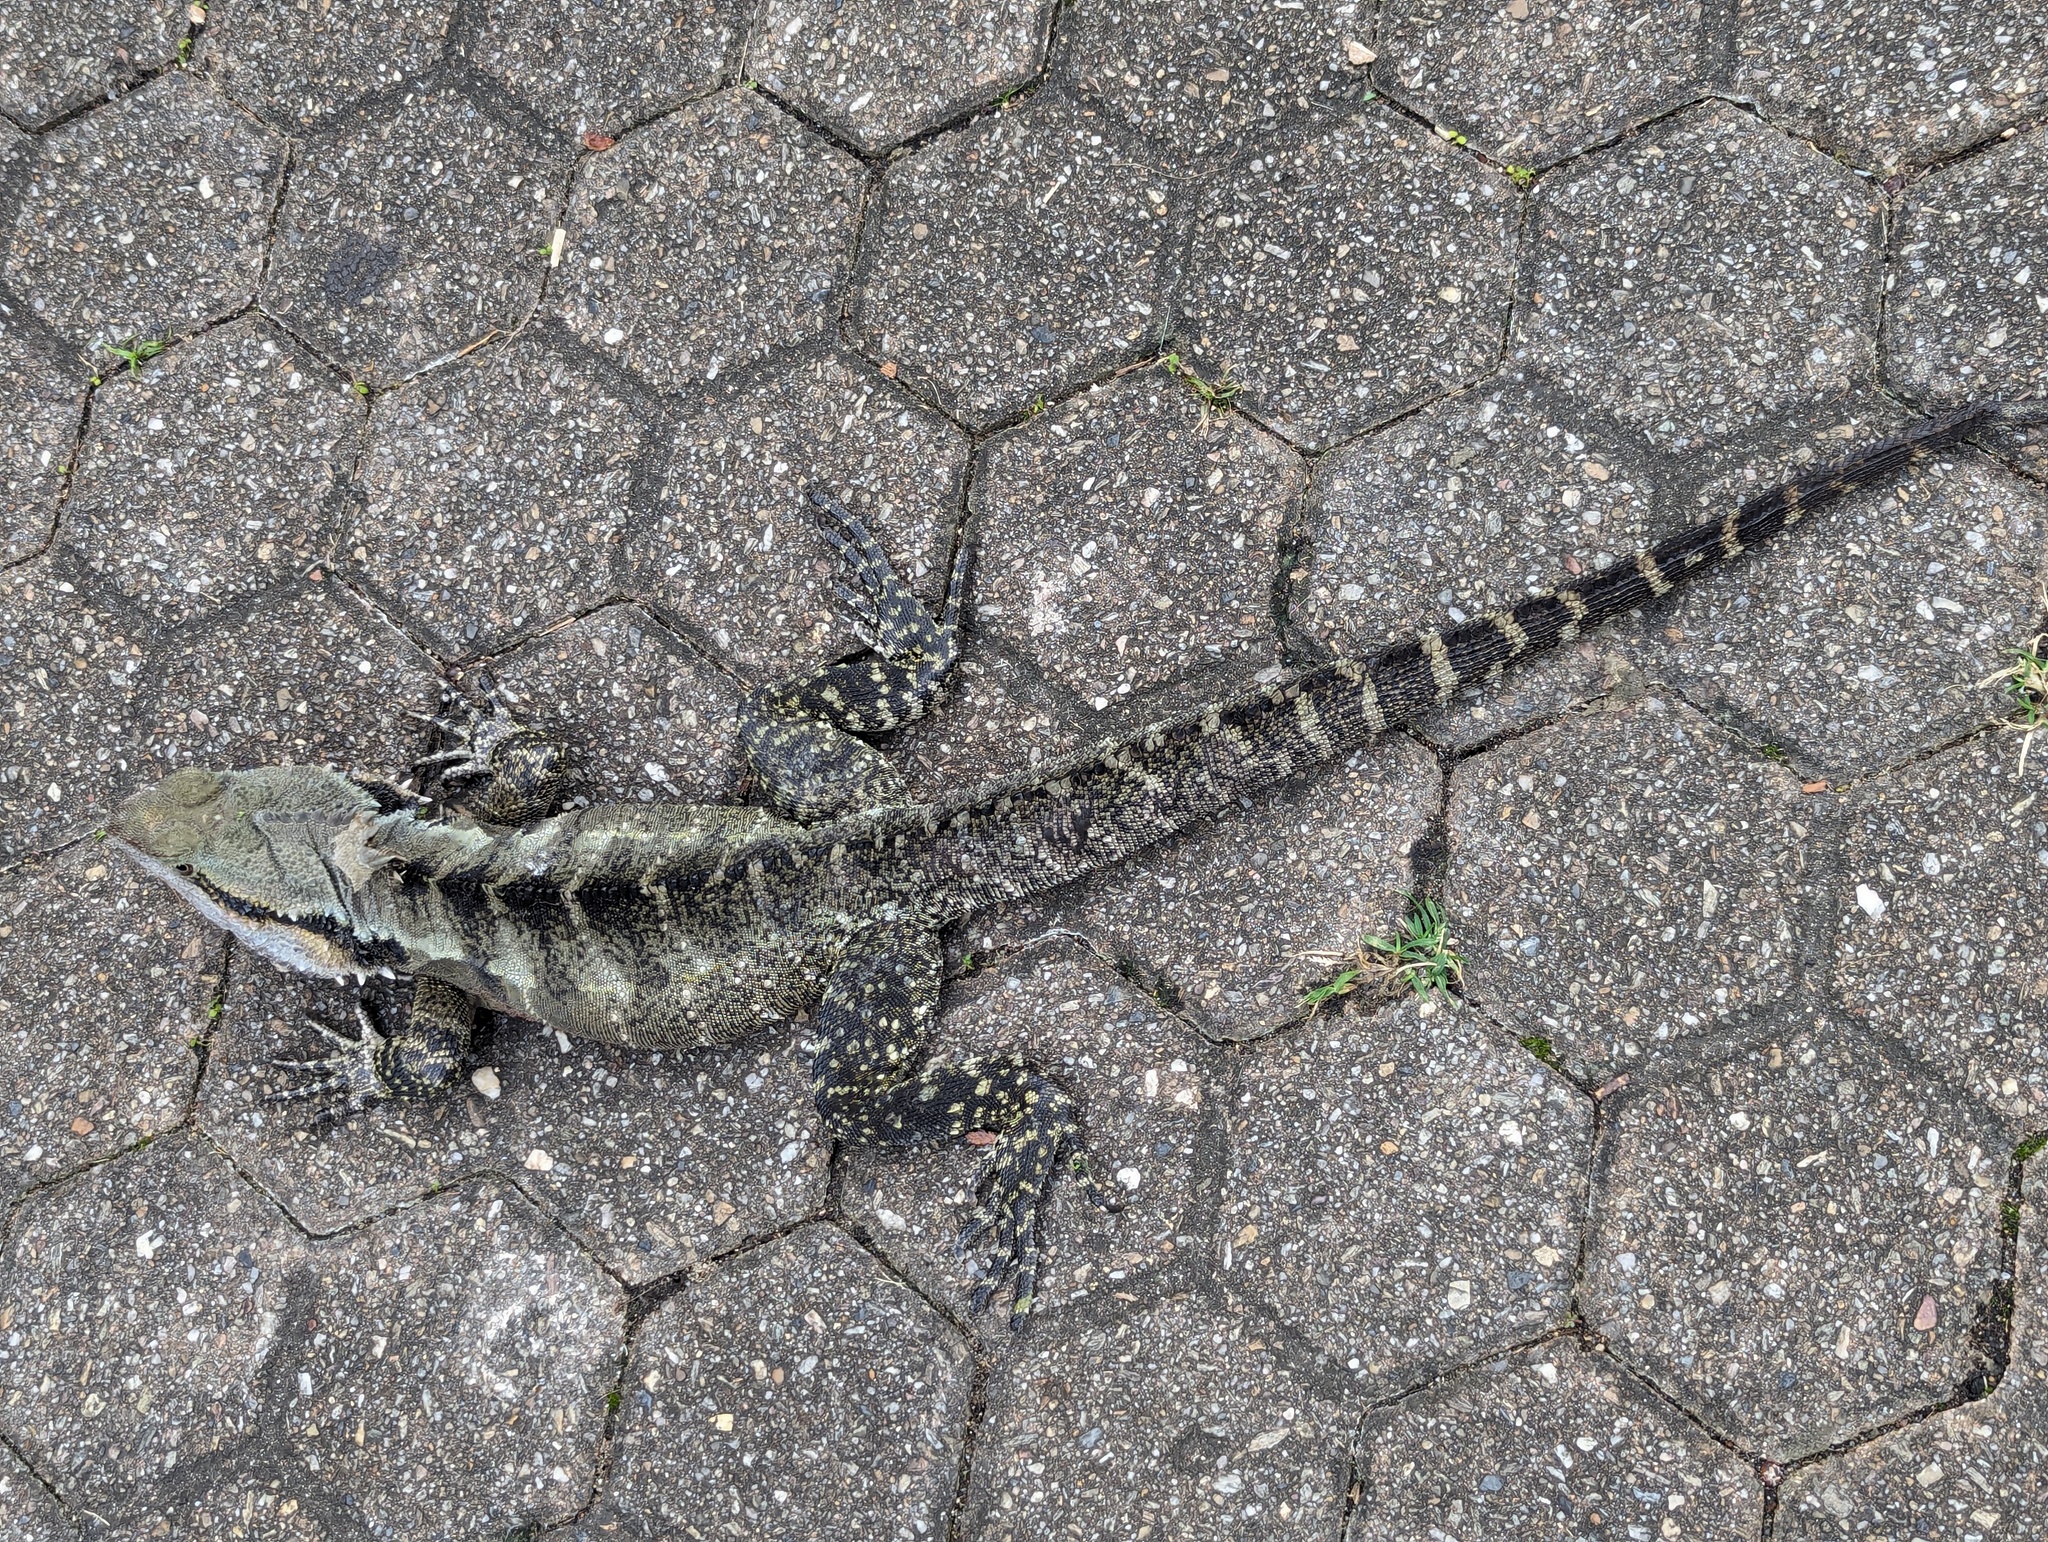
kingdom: Animalia
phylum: Chordata
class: Squamata
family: Agamidae
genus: Intellagama
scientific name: Intellagama lesueurii
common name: Eastern water dragon
